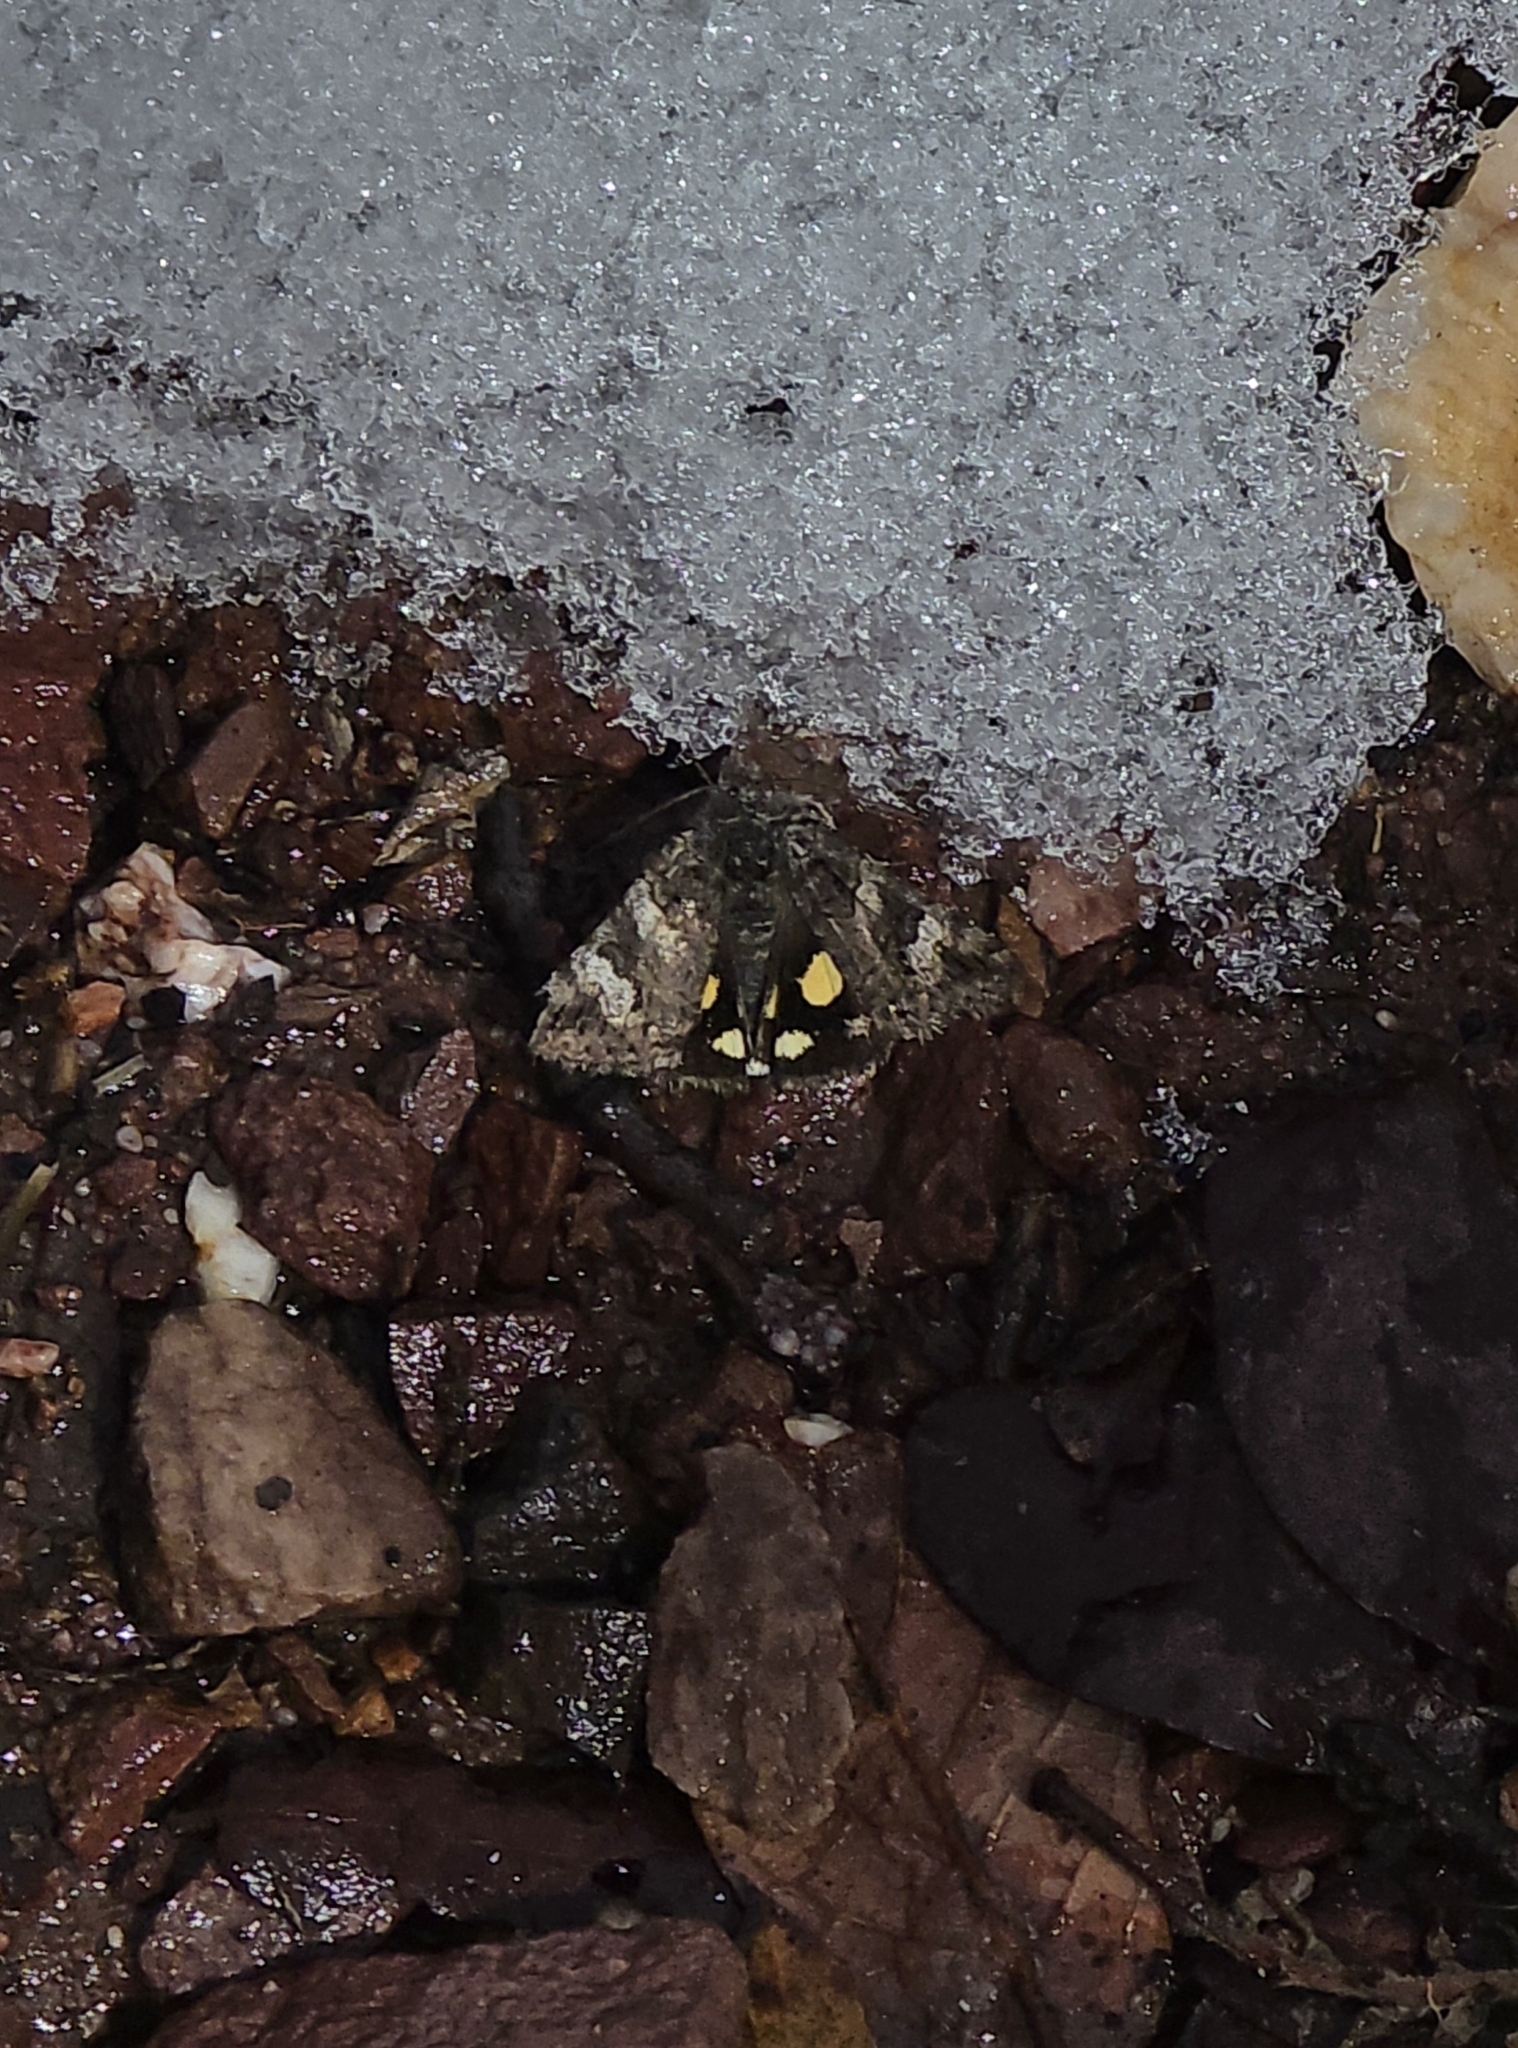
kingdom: Animalia
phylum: Arthropoda
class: Insecta
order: Lepidoptera
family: Erebidae
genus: Litocala
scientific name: Litocala sexsignata
